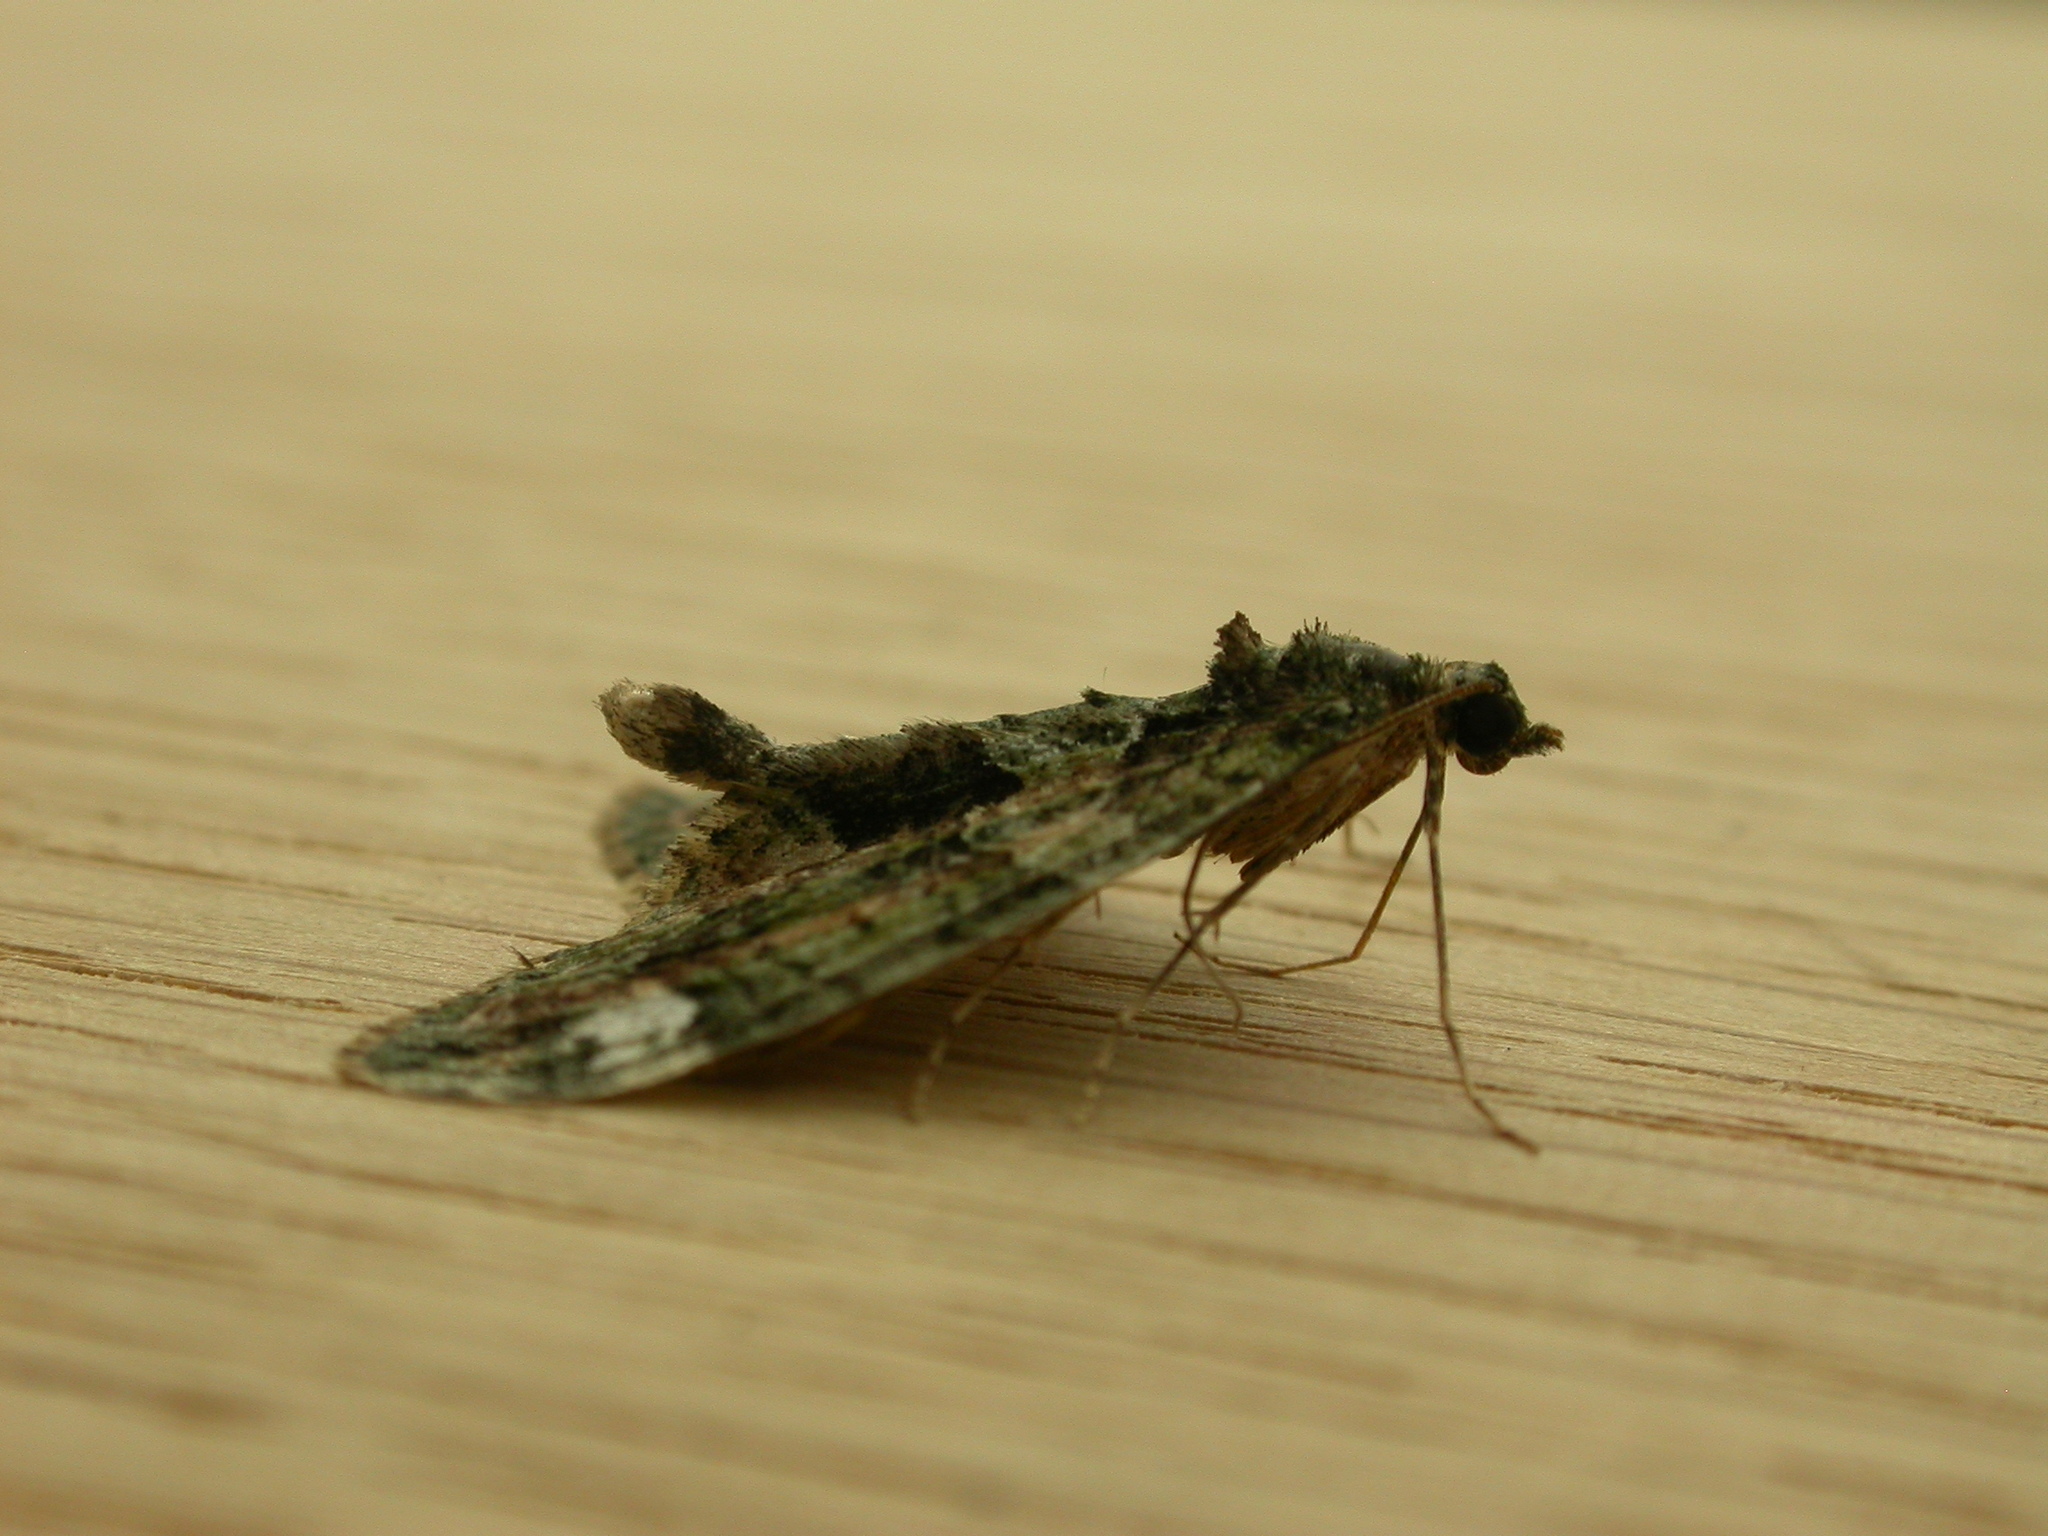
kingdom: Animalia
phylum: Arthropoda
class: Insecta
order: Lepidoptera
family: Geometridae
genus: Chloroclysta
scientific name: Chloroclysta siterata
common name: Red-green carpet
